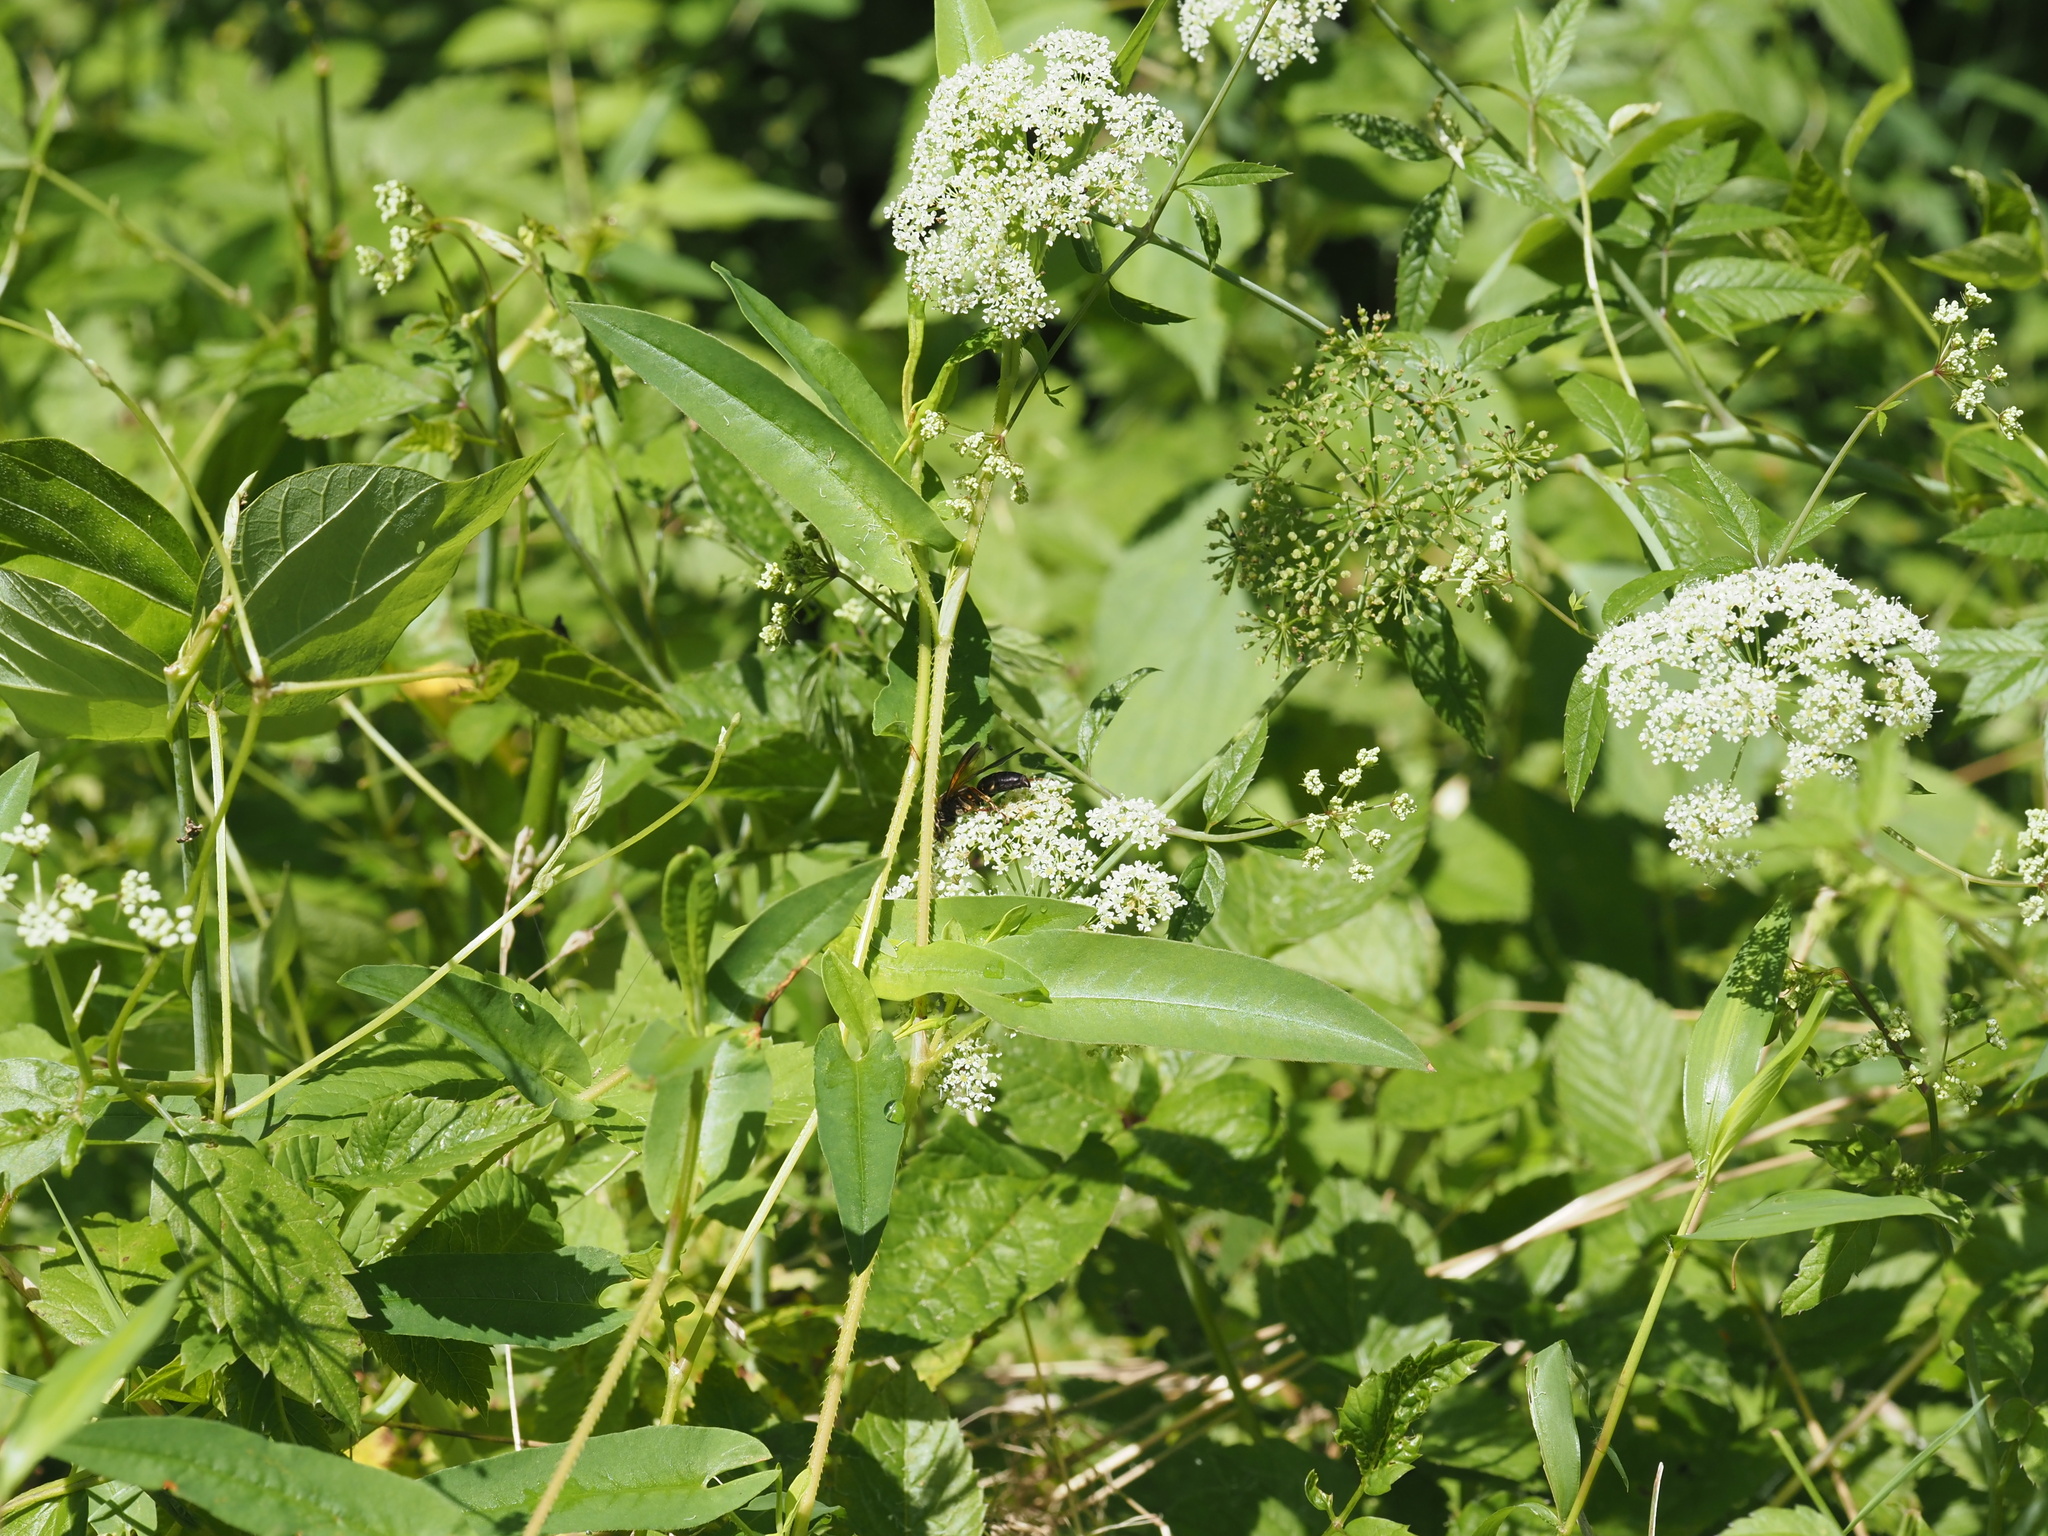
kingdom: Plantae
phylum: Tracheophyta
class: Magnoliopsida
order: Apiales
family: Apiaceae
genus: Cicuta
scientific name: Cicuta maculata
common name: Spotted cowbane
